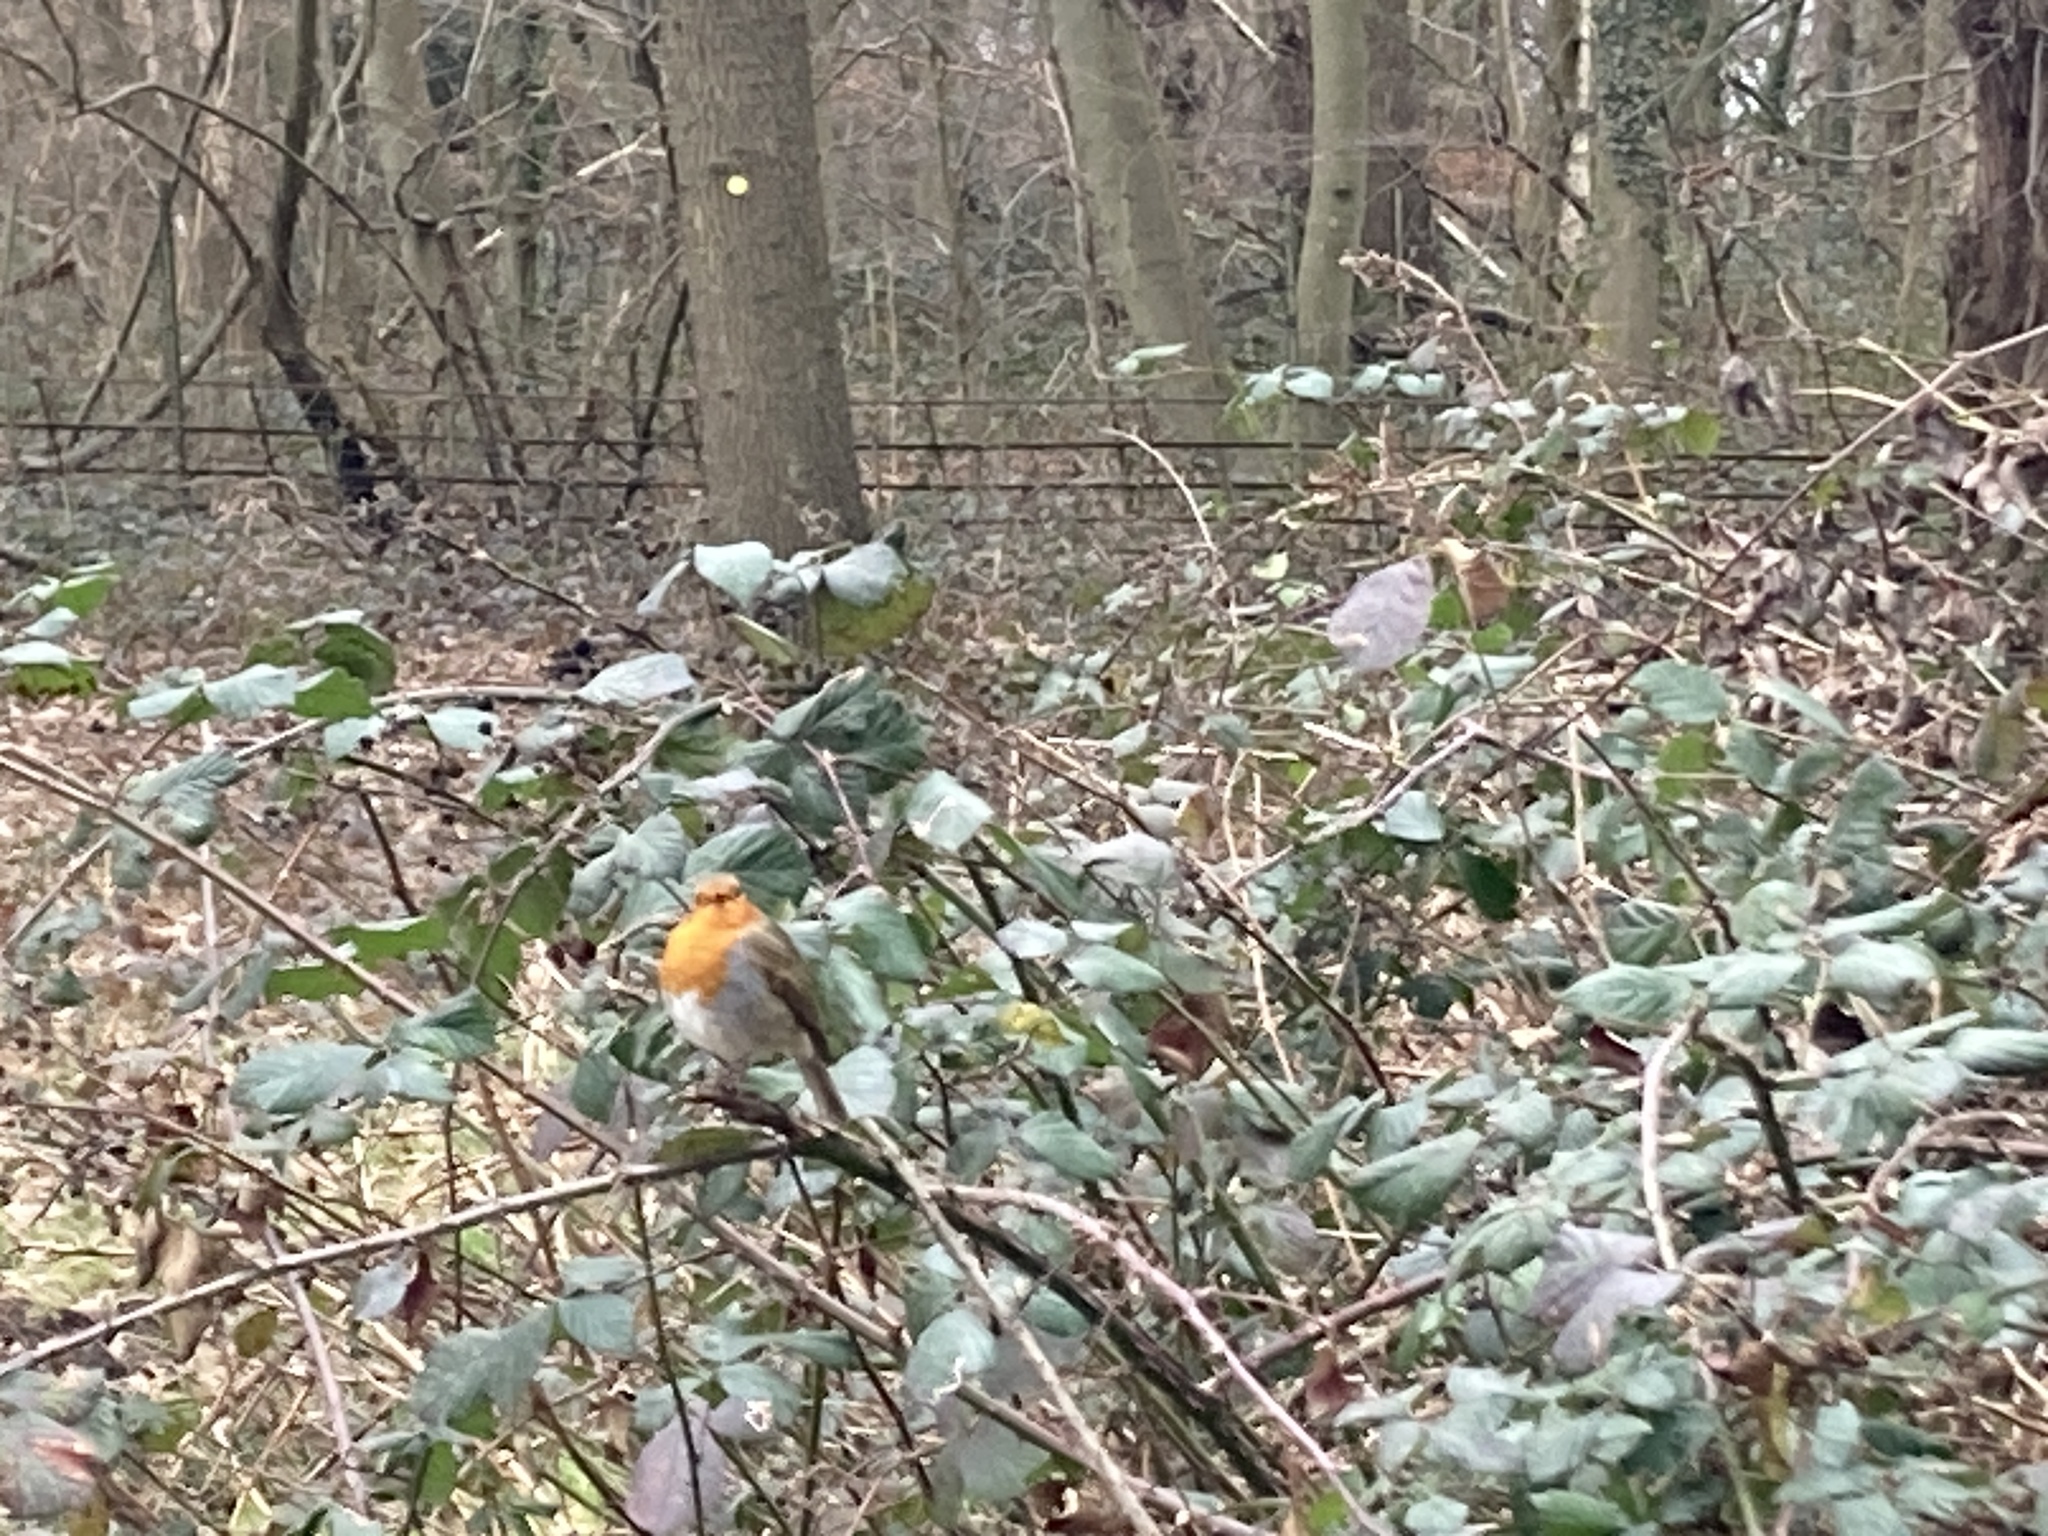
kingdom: Animalia
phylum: Chordata
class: Aves
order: Passeriformes
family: Muscicapidae
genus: Erithacus
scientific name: Erithacus rubecula
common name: European robin
